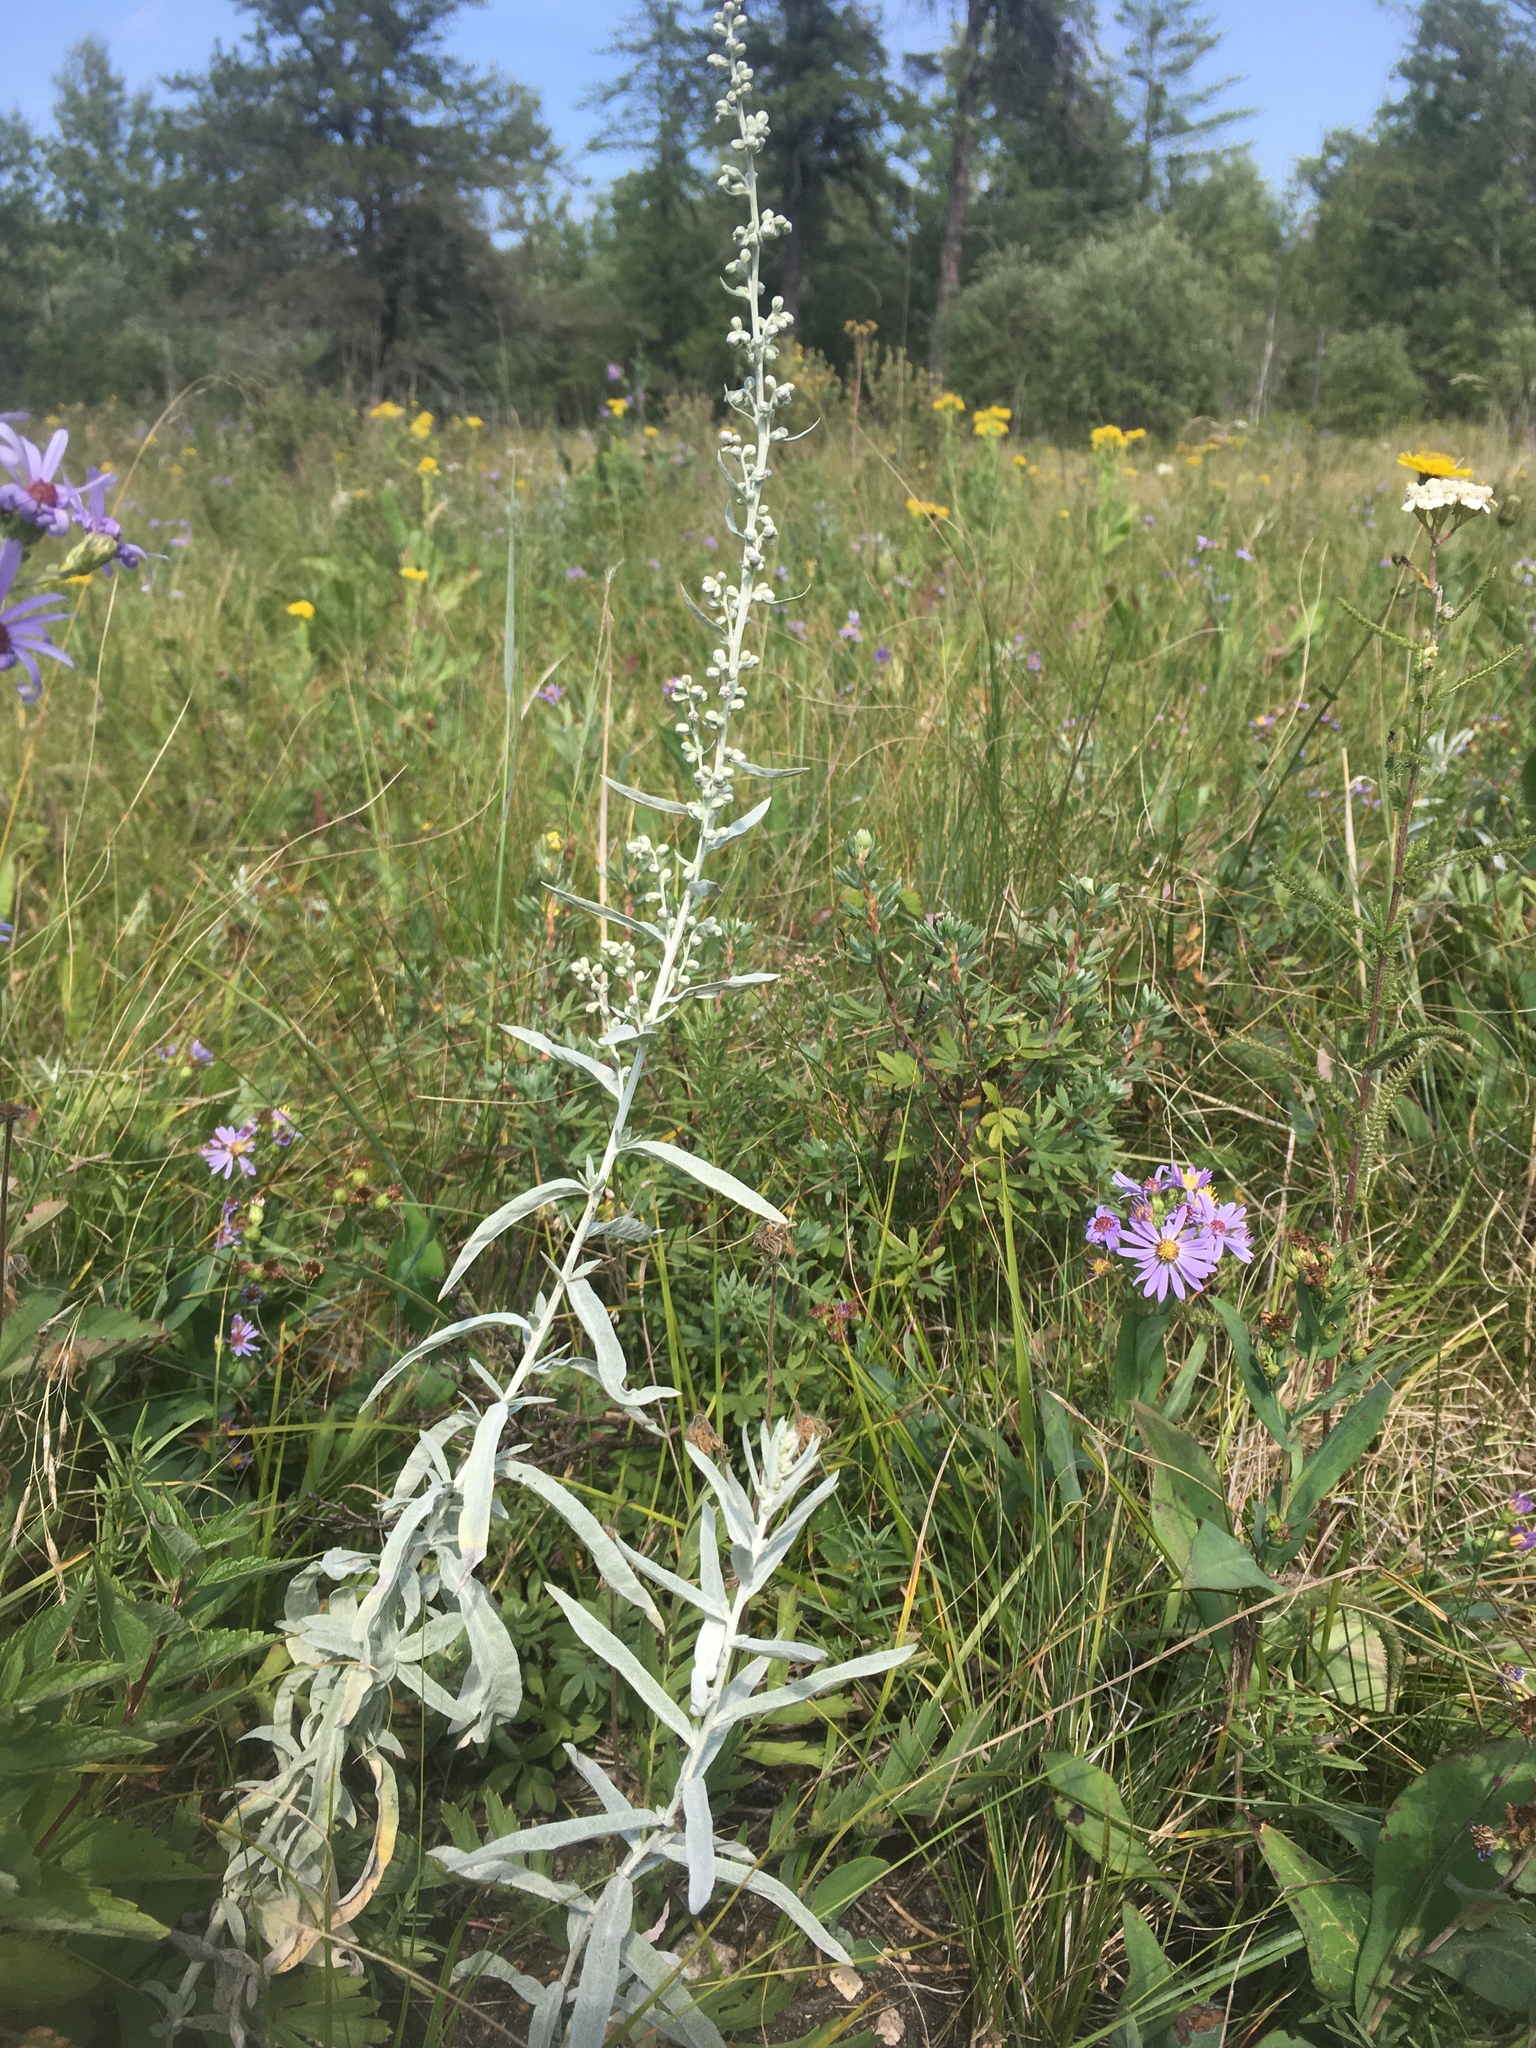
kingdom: Plantae
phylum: Tracheophyta
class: Magnoliopsida
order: Asterales
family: Asteraceae
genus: Artemisia
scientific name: Artemisia ludoviciana
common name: Western mugwort
